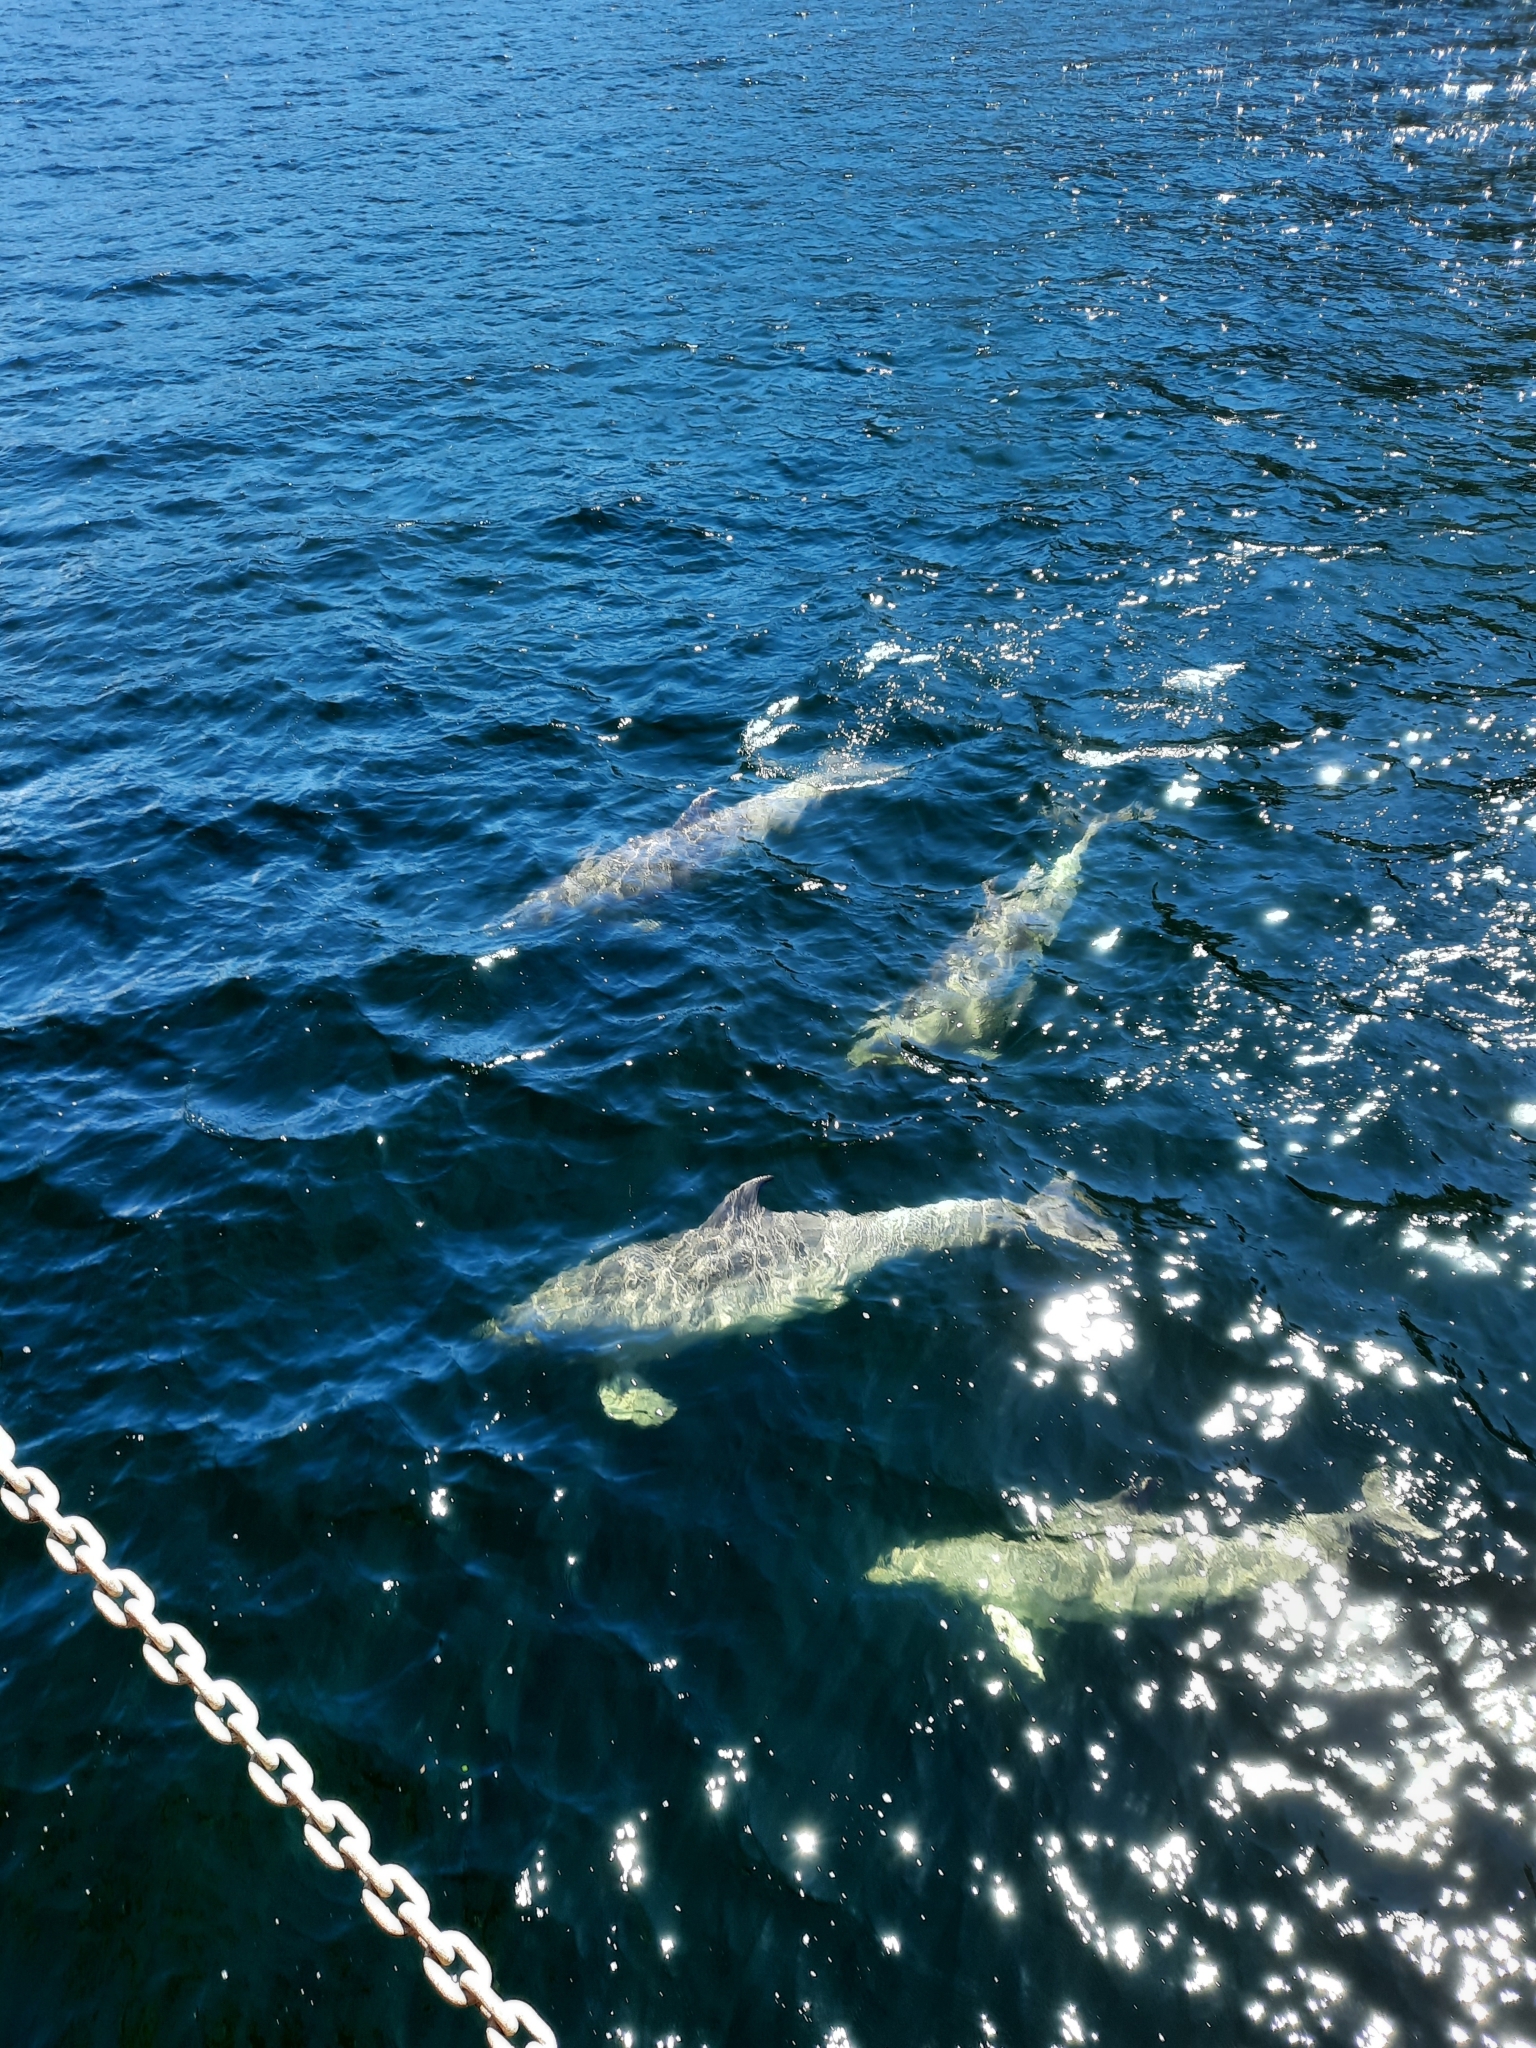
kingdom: Animalia
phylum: Chordata
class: Mammalia
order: Cetacea
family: Delphinidae
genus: Tursiops
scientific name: Tursiops truncatus
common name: Bottlenose dolphin
